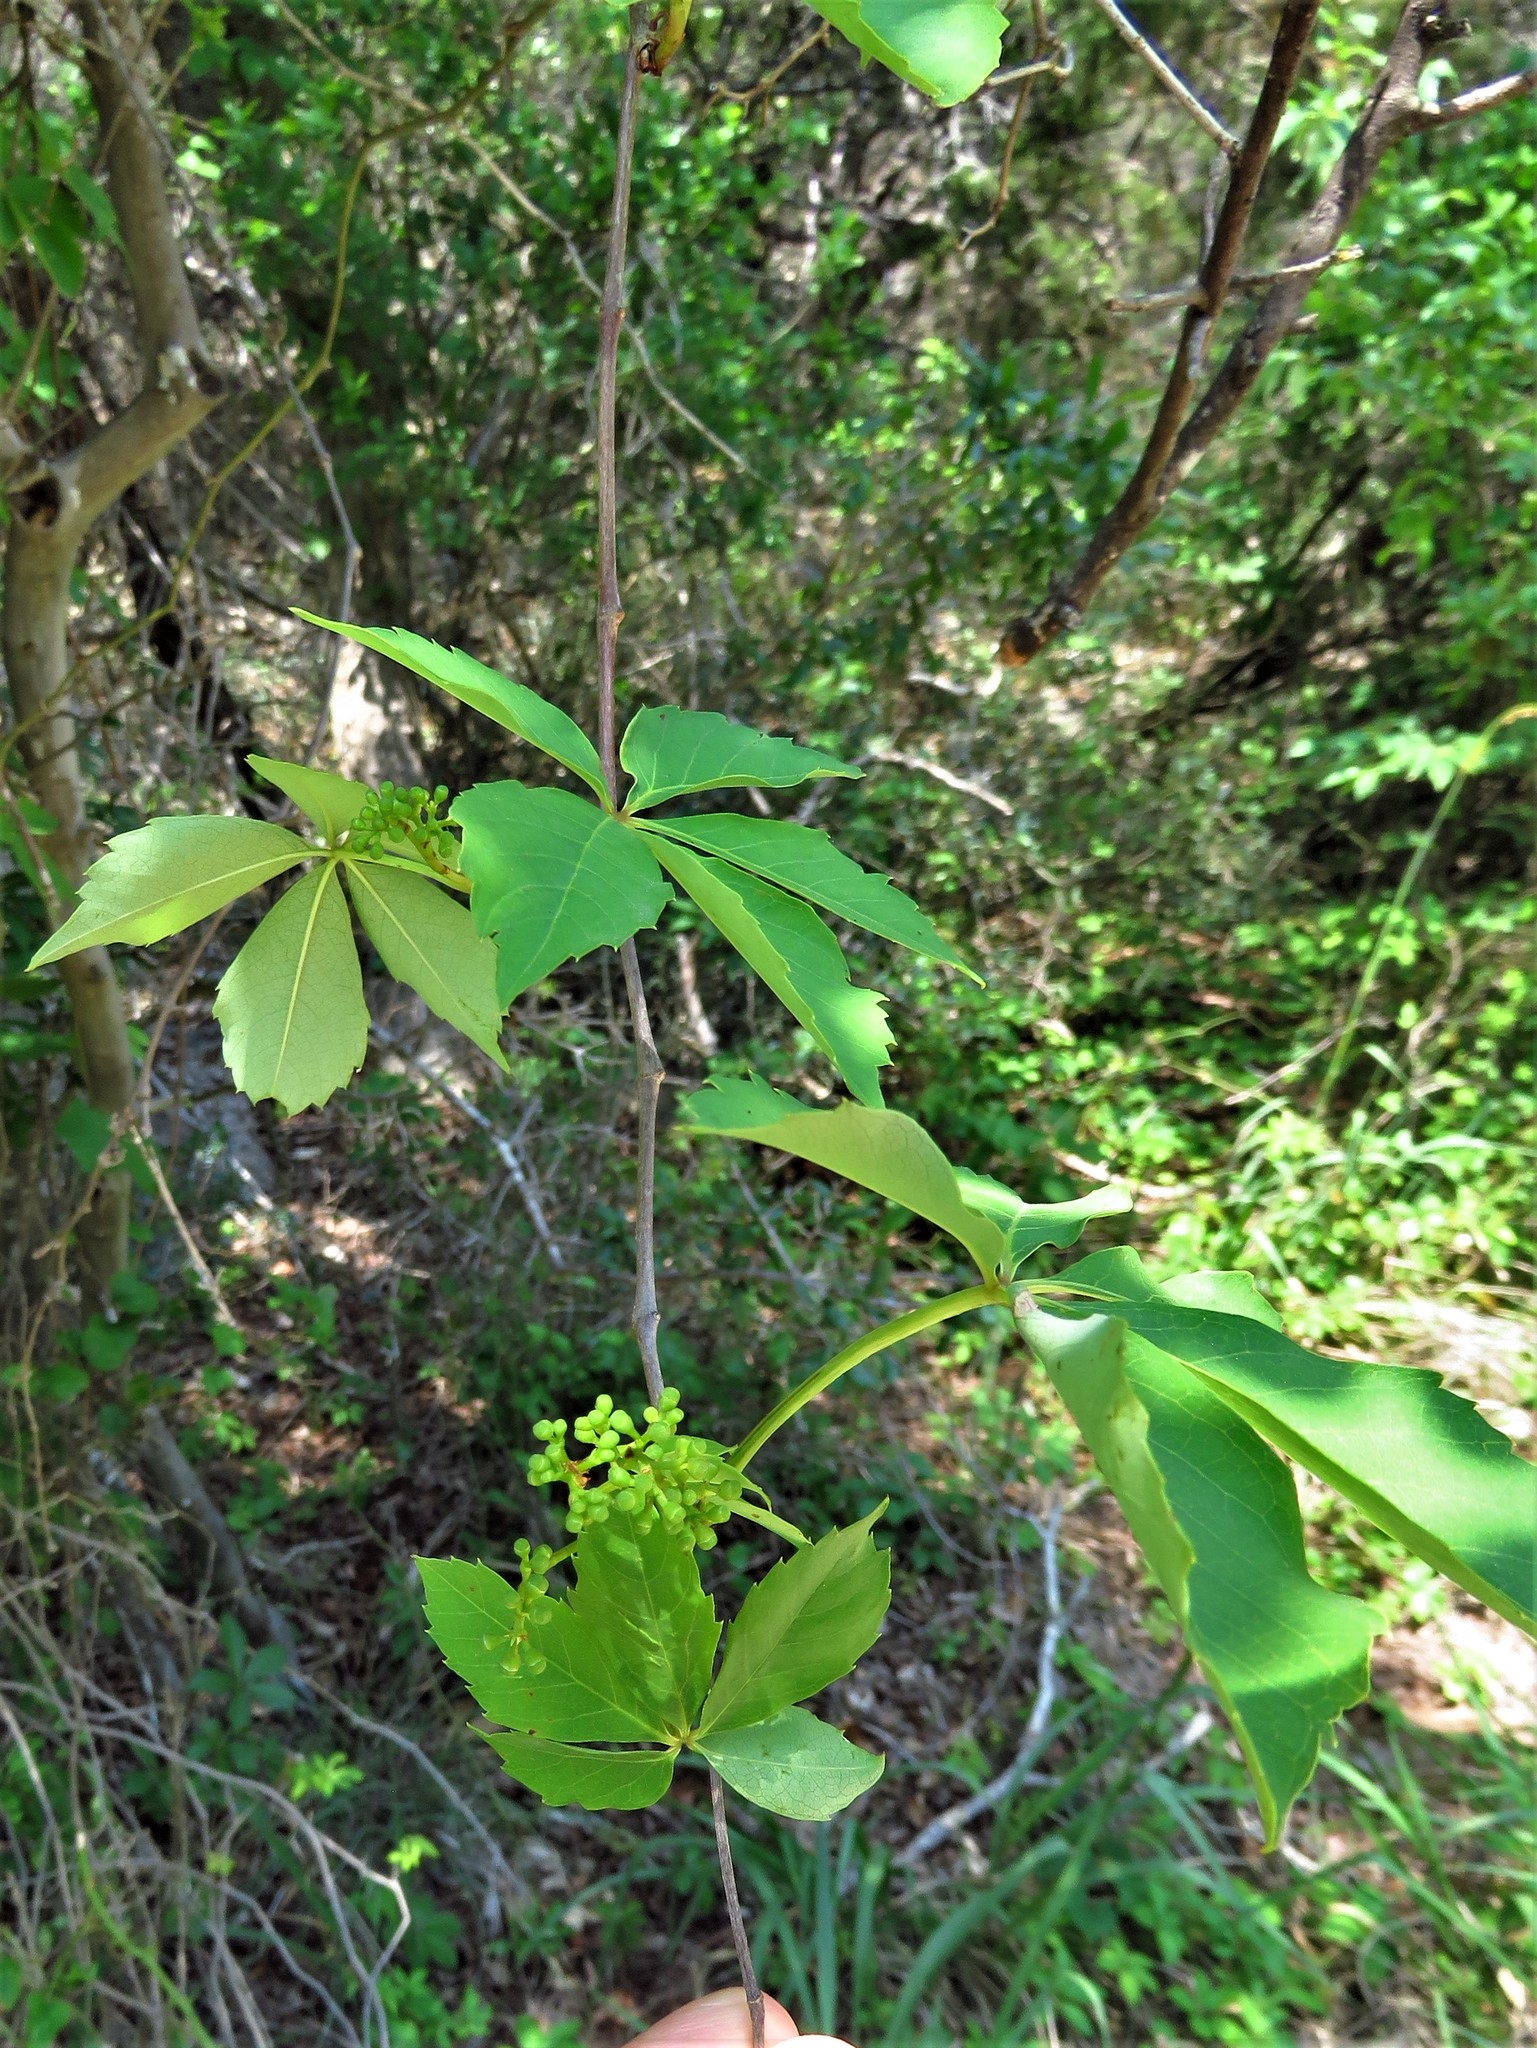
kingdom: Plantae
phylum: Tracheophyta
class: Magnoliopsida
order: Vitales
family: Vitaceae
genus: Parthenocissus
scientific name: Parthenocissus quinquefolia
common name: Virginia-creeper
